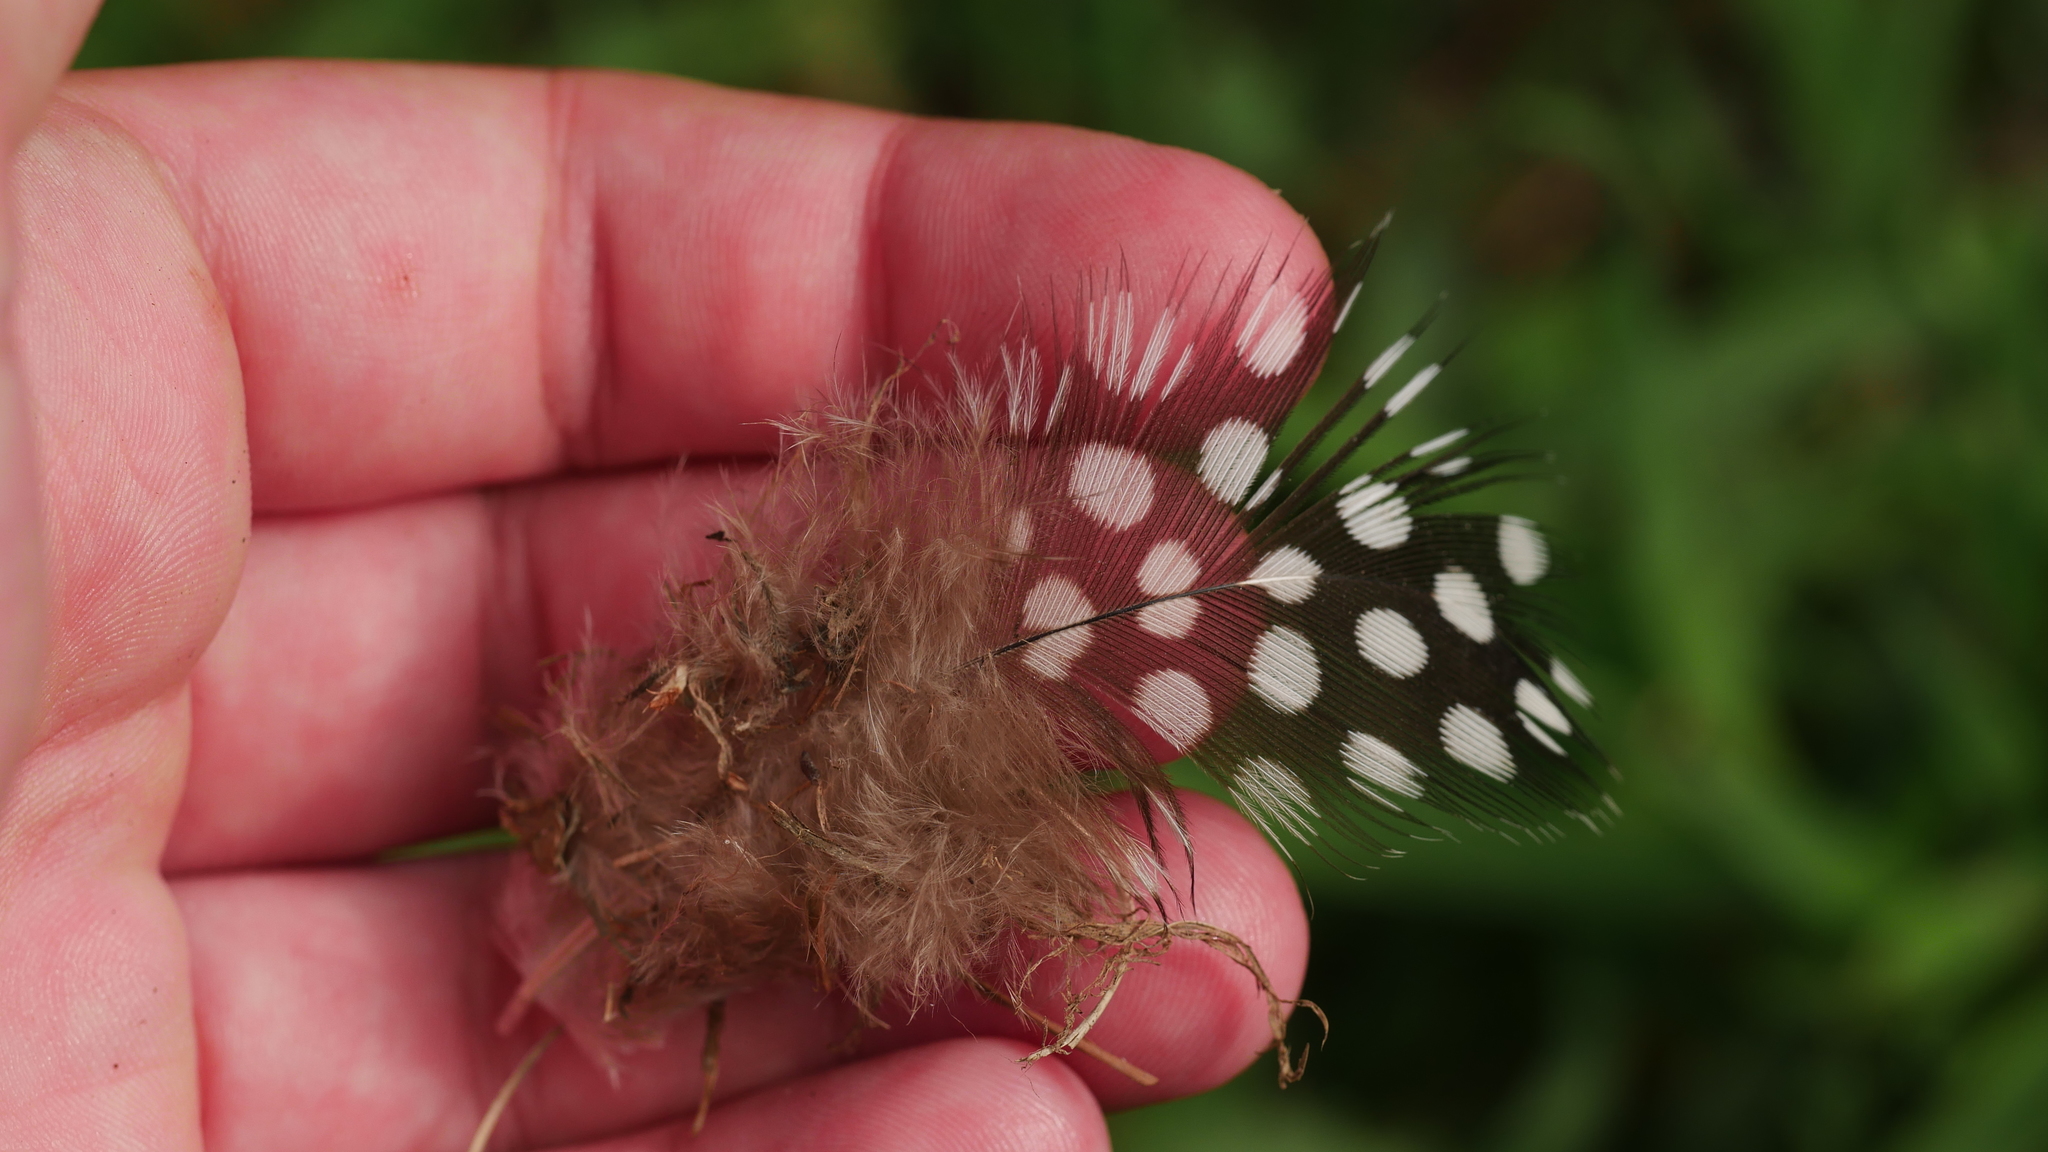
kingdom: Animalia
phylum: Chordata
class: Aves
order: Galliformes
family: Numididae
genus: Numida
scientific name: Numida meleagris
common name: Helmeted guineafowl
